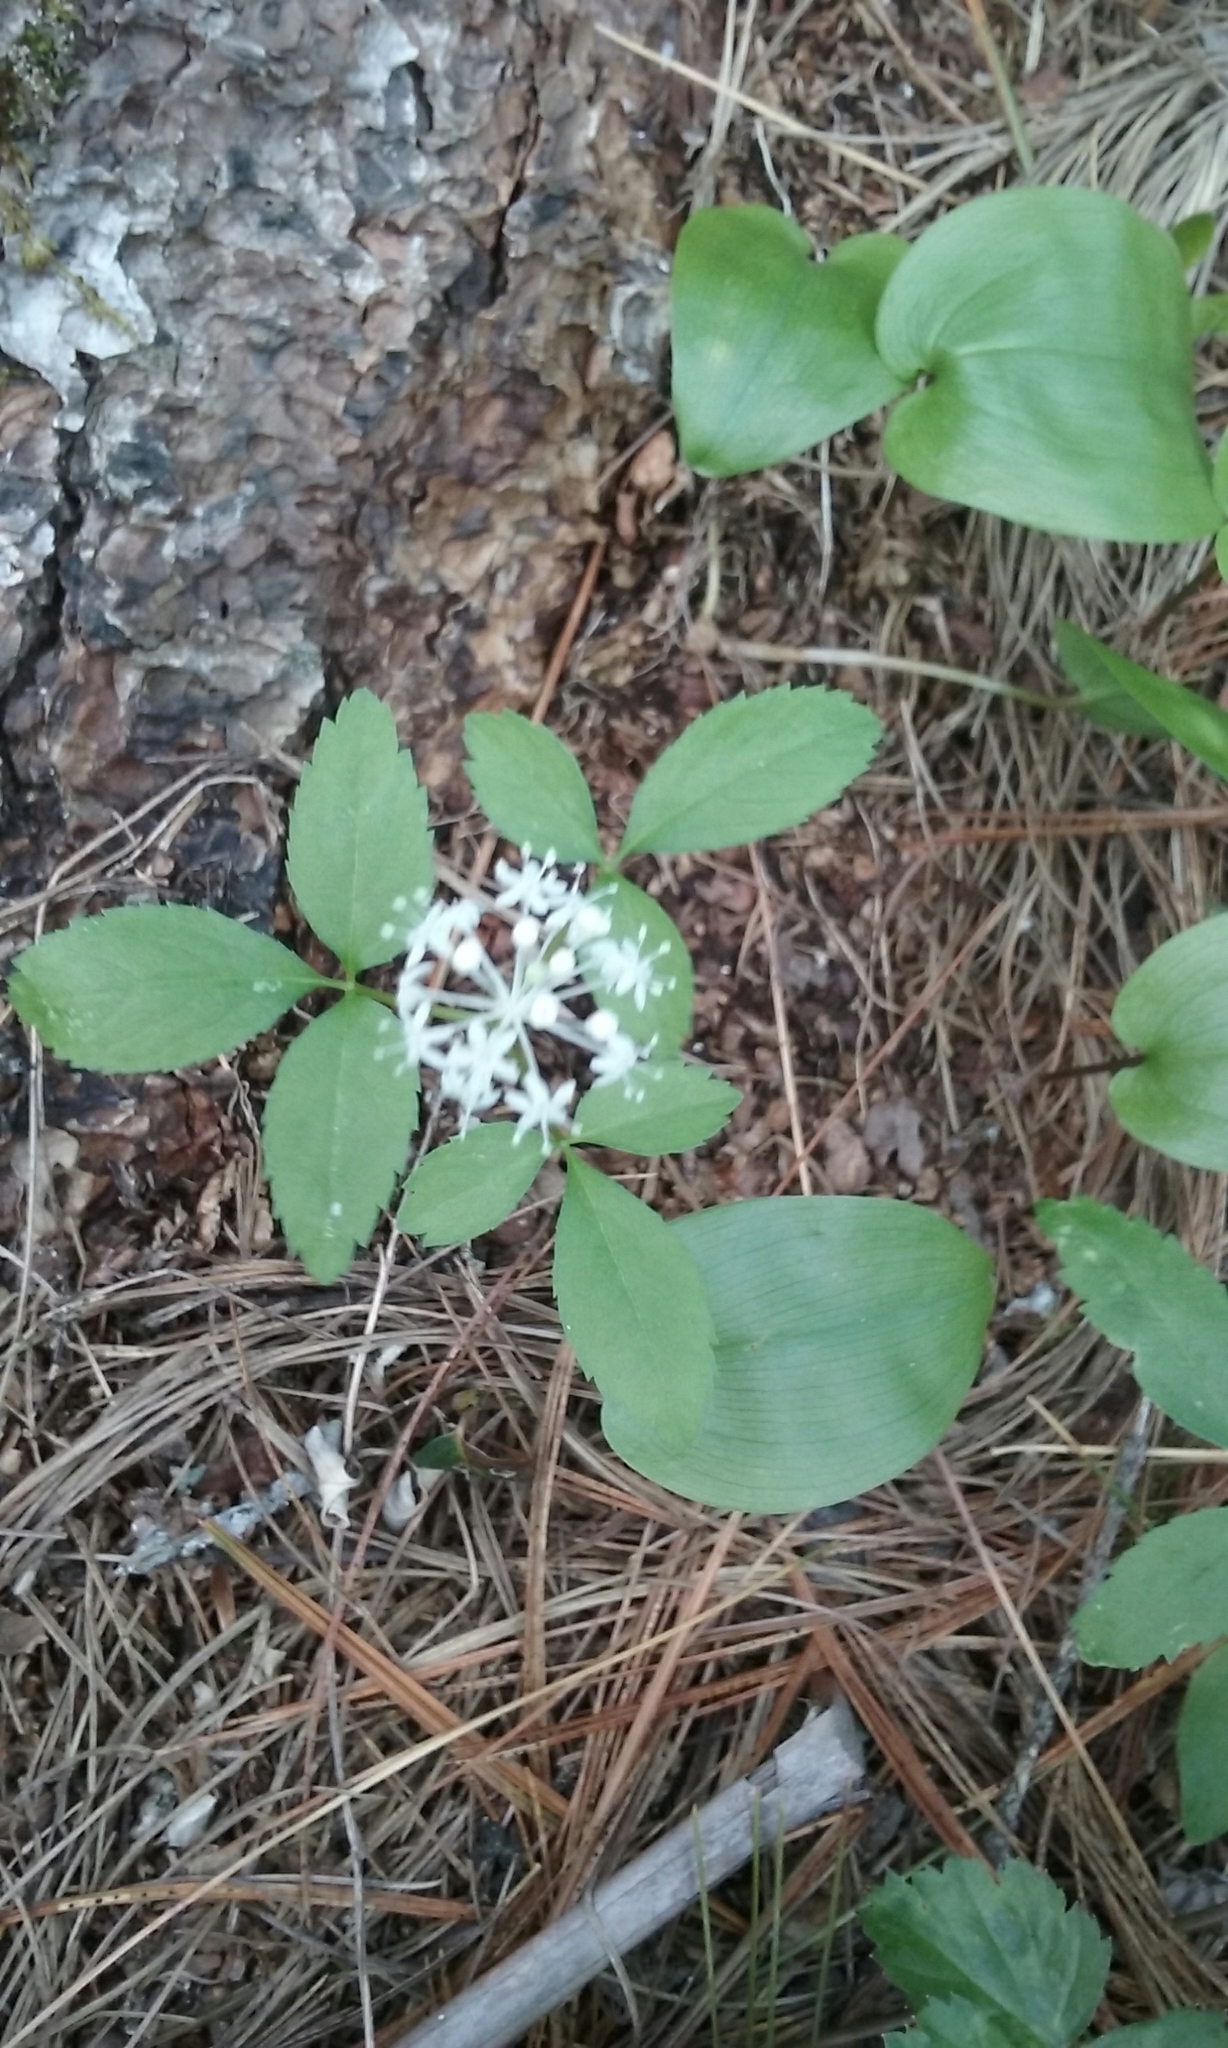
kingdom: Plantae
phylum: Tracheophyta
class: Magnoliopsida
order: Apiales
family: Araliaceae
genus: Panax
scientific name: Panax trifolius
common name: Dwarf ginseng
